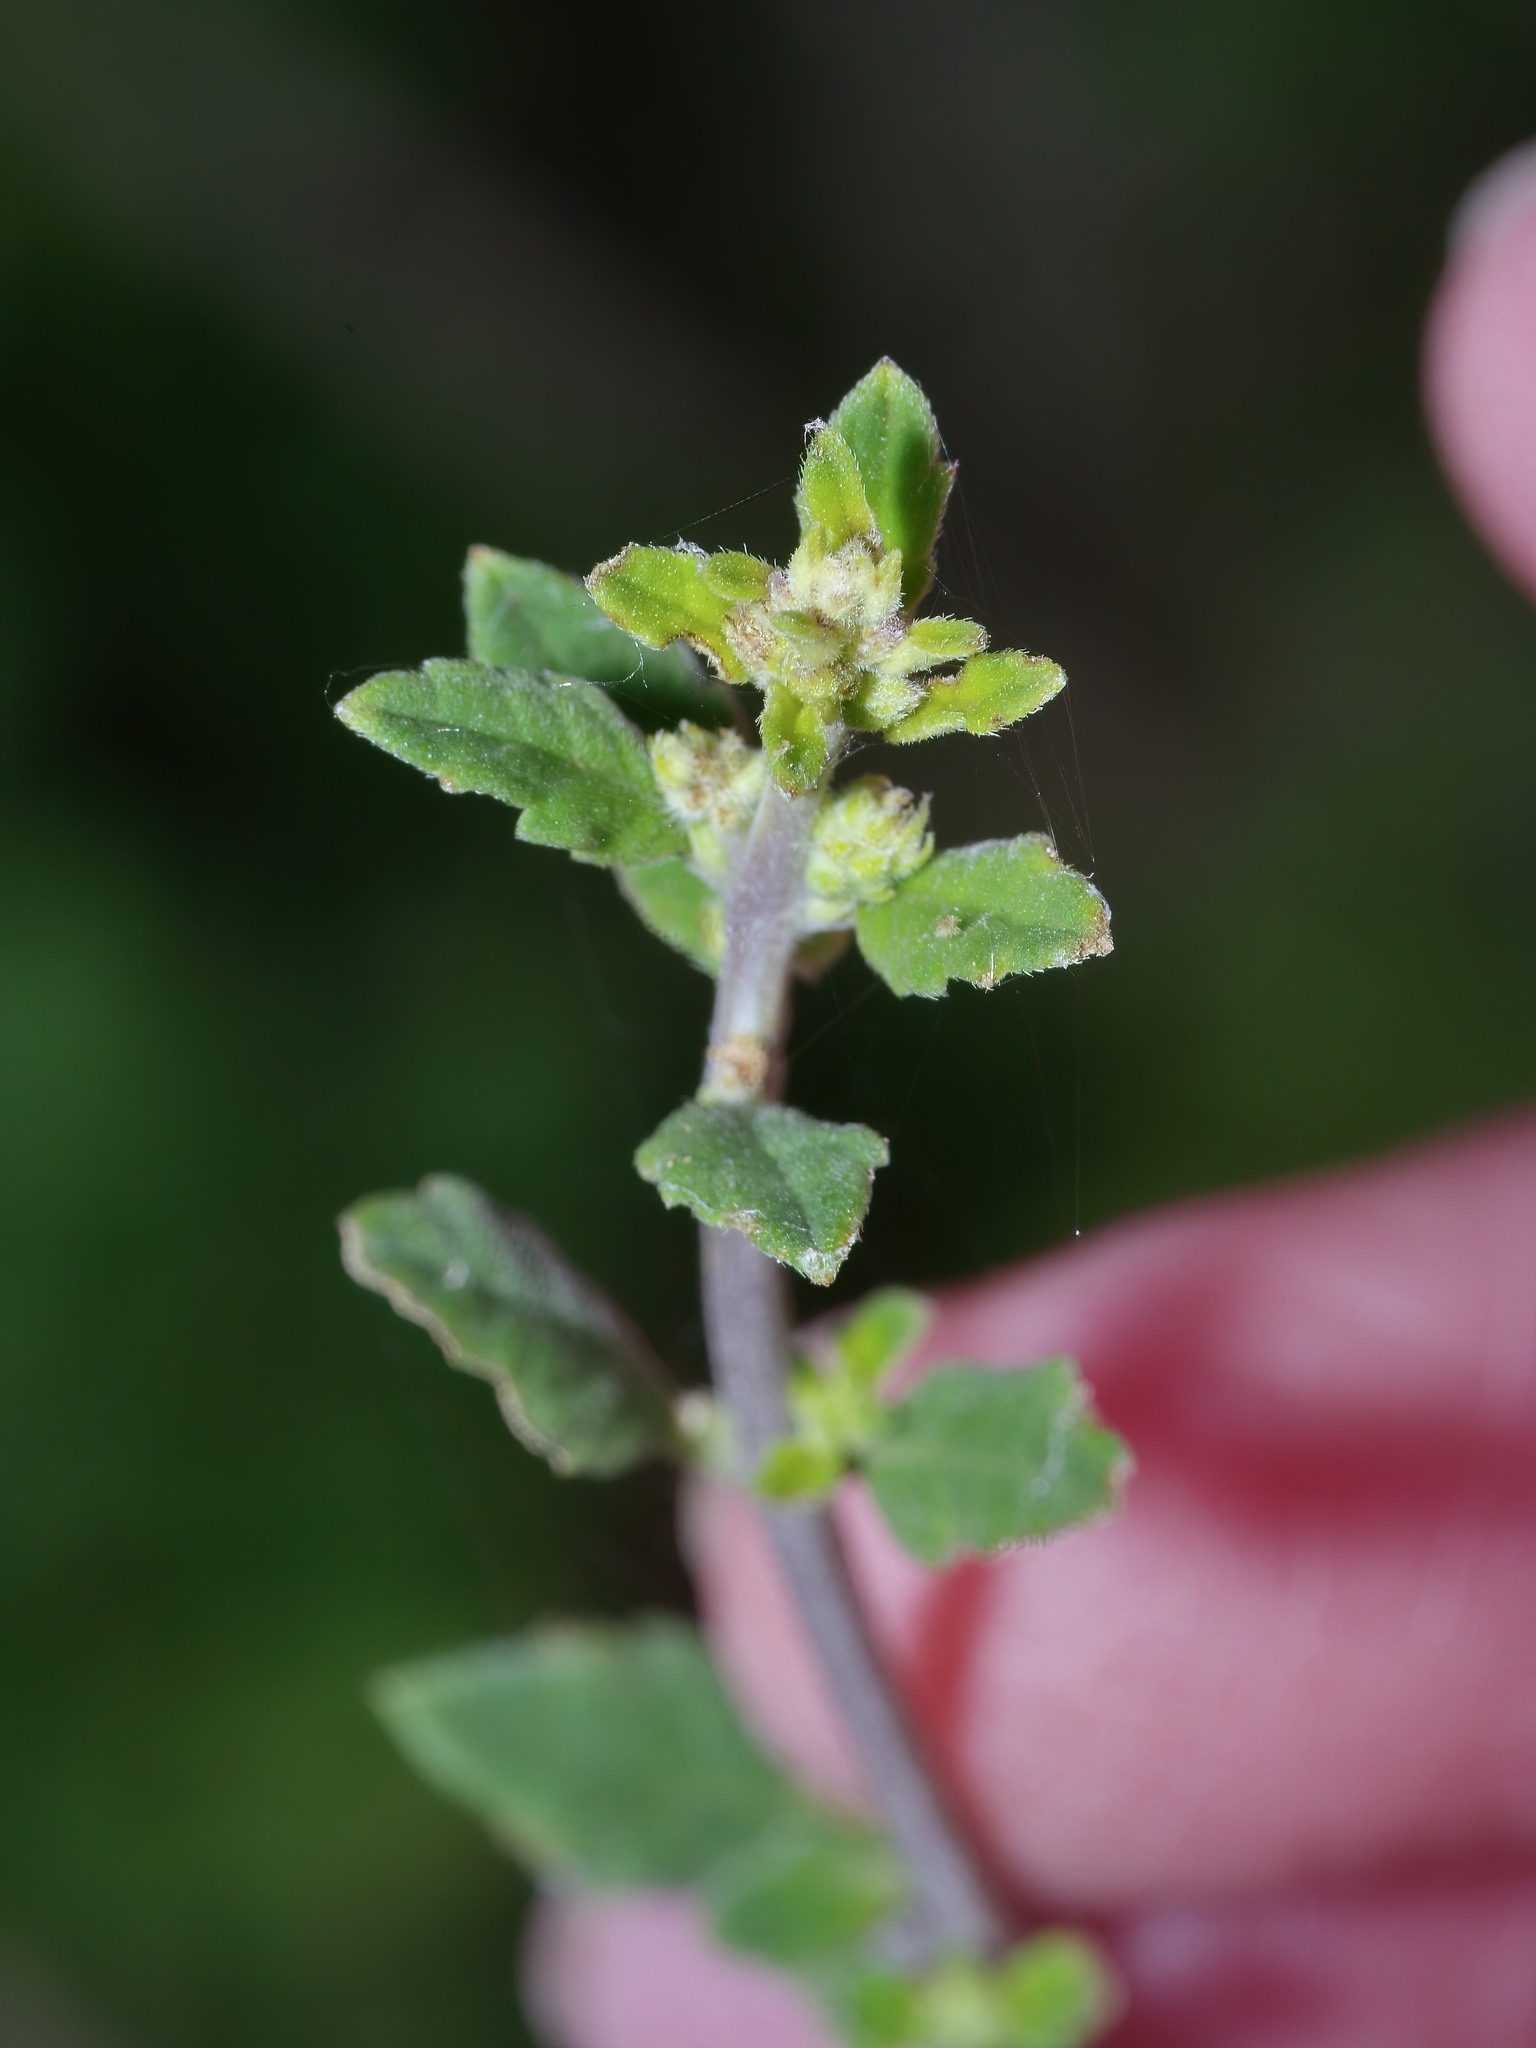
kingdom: Plantae
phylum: Tracheophyta
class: Magnoliopsida
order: Lamiales
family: Verbenaceae
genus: Aloysia
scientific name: Aloysia gratissima
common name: Common bee-brush
